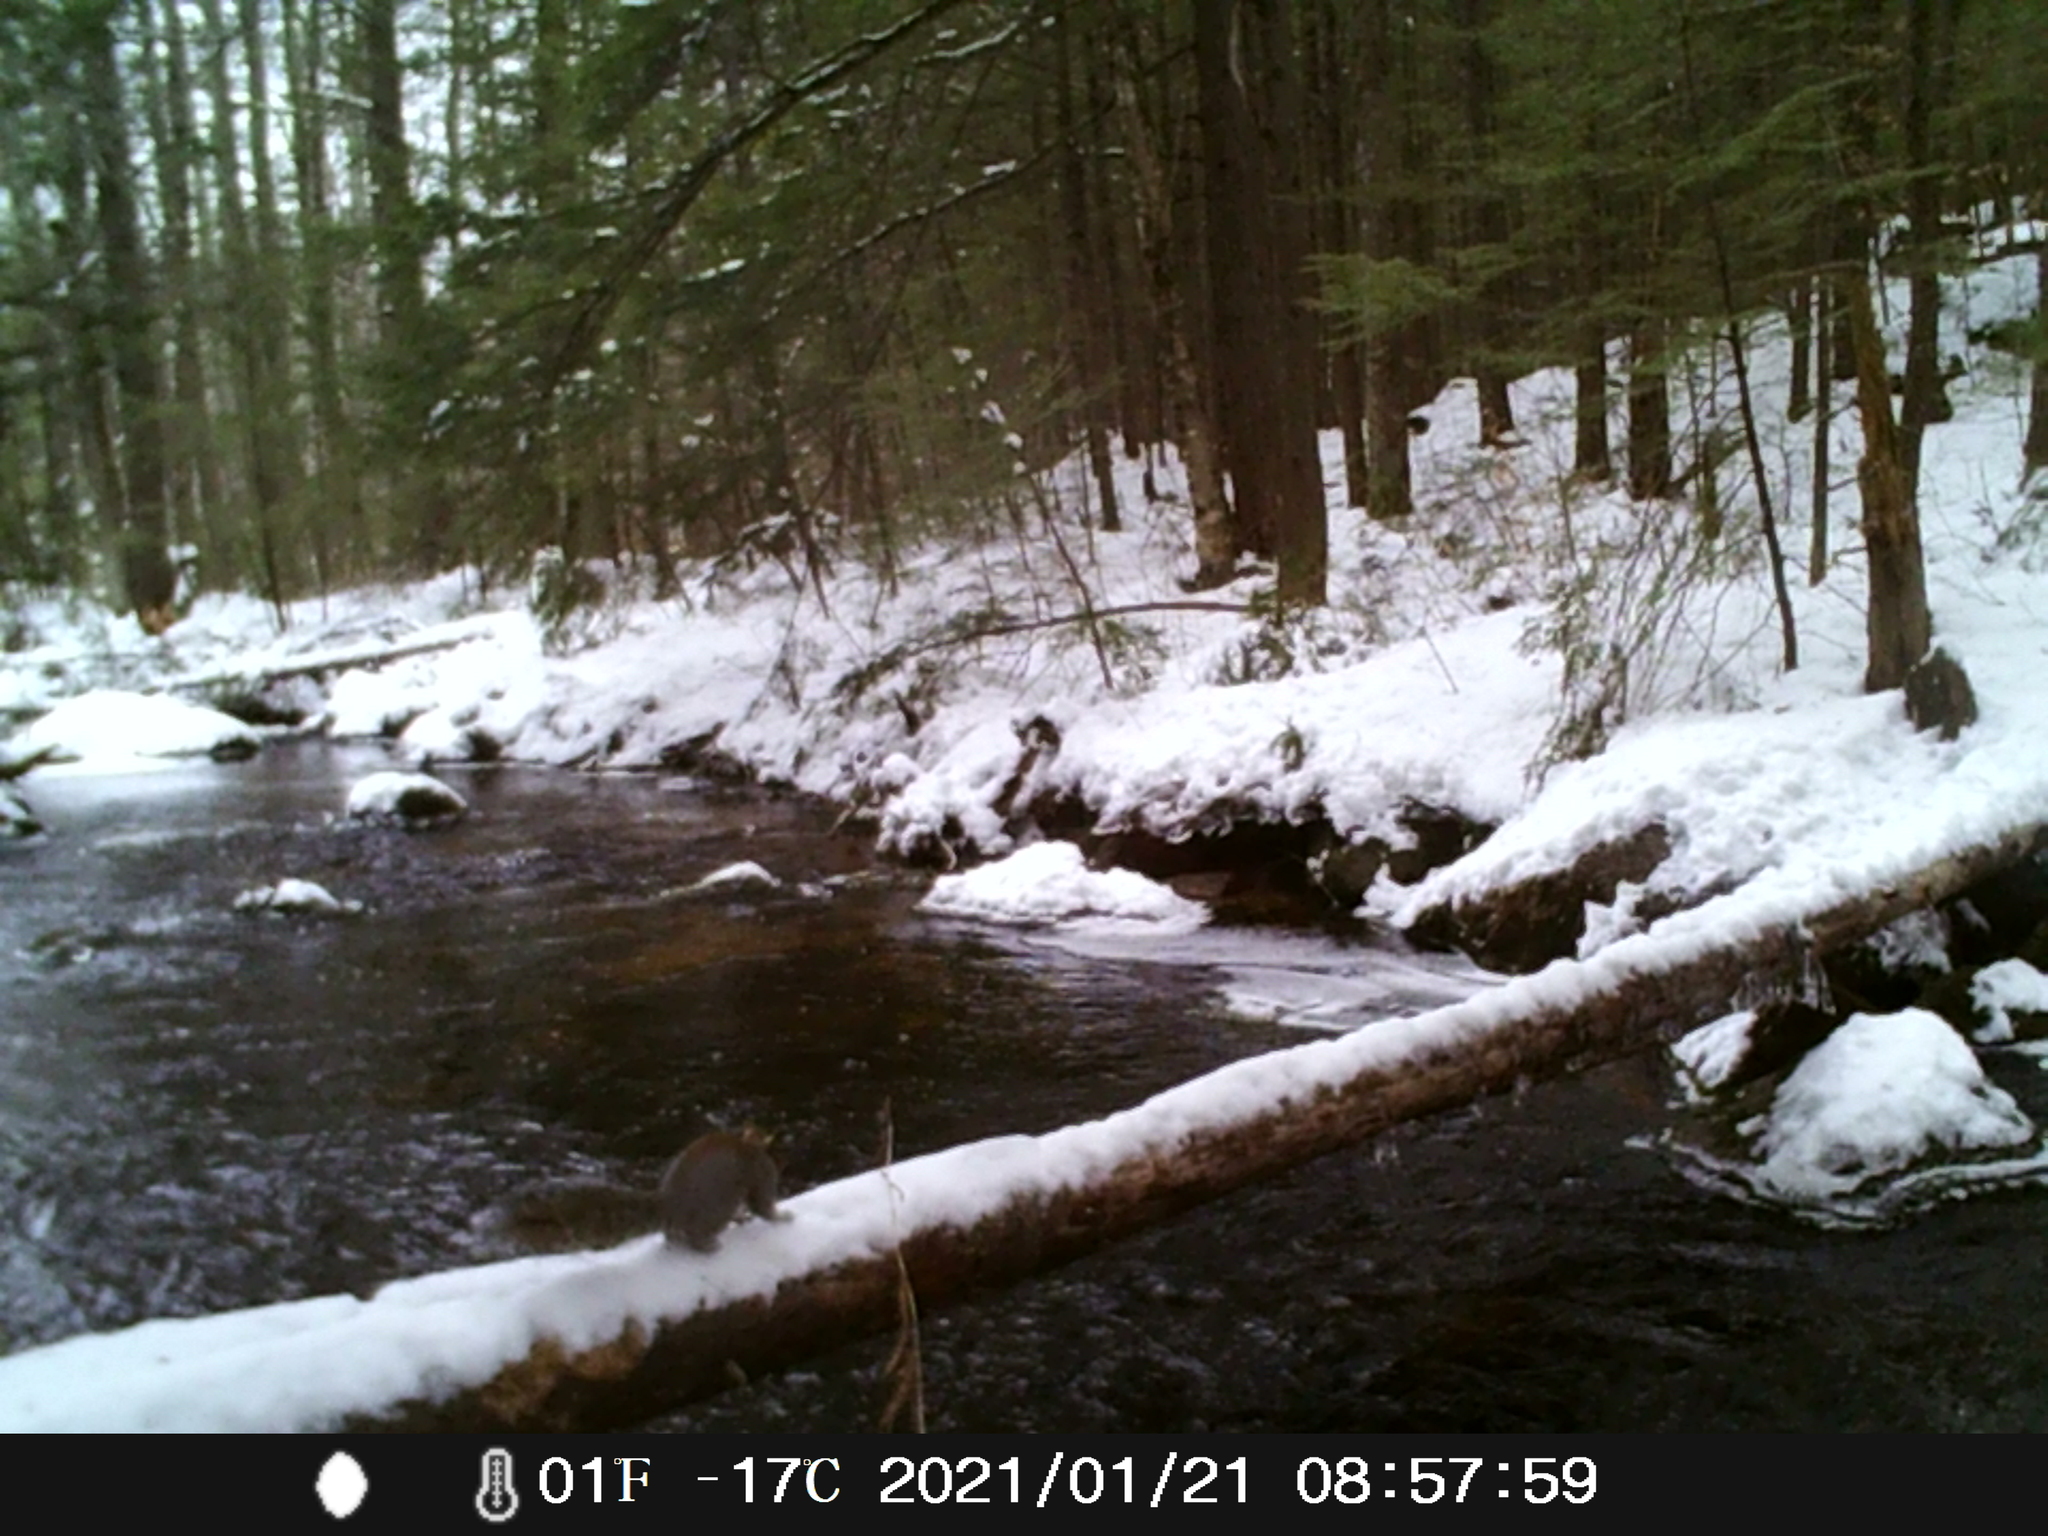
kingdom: Animalia
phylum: Chordata
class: Mammalia
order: Rodentia
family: Sciuridae
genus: Sciurus
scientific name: Sciurus carolinensis
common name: Eastern gray squirrel
